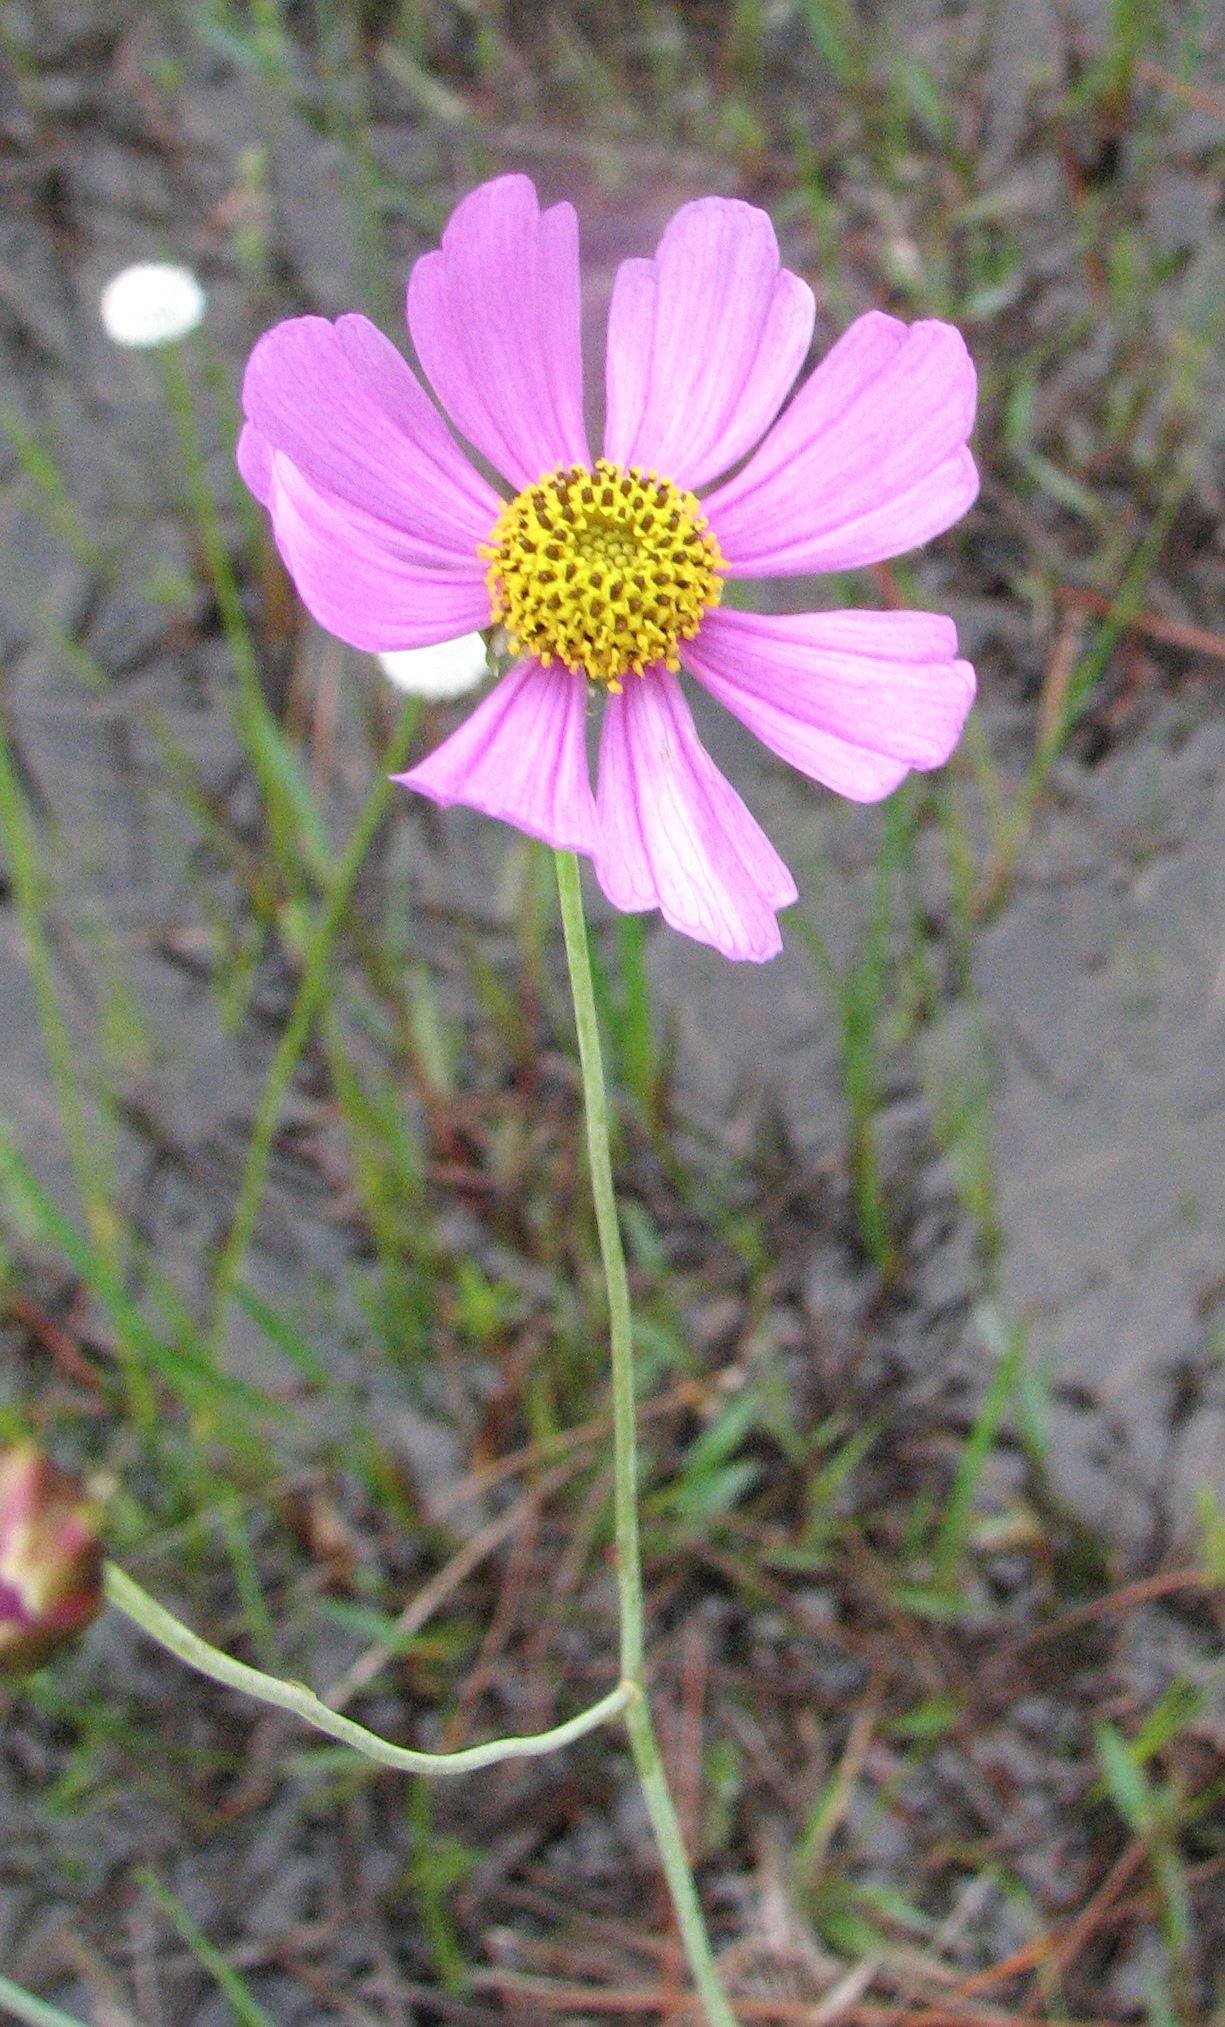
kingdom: Plantae
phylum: Tracheophyta
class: Magnoliopsida
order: Asterales
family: Asteraceae
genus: Coreopsis
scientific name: Coreopsis nudata
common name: Purple tickseed
